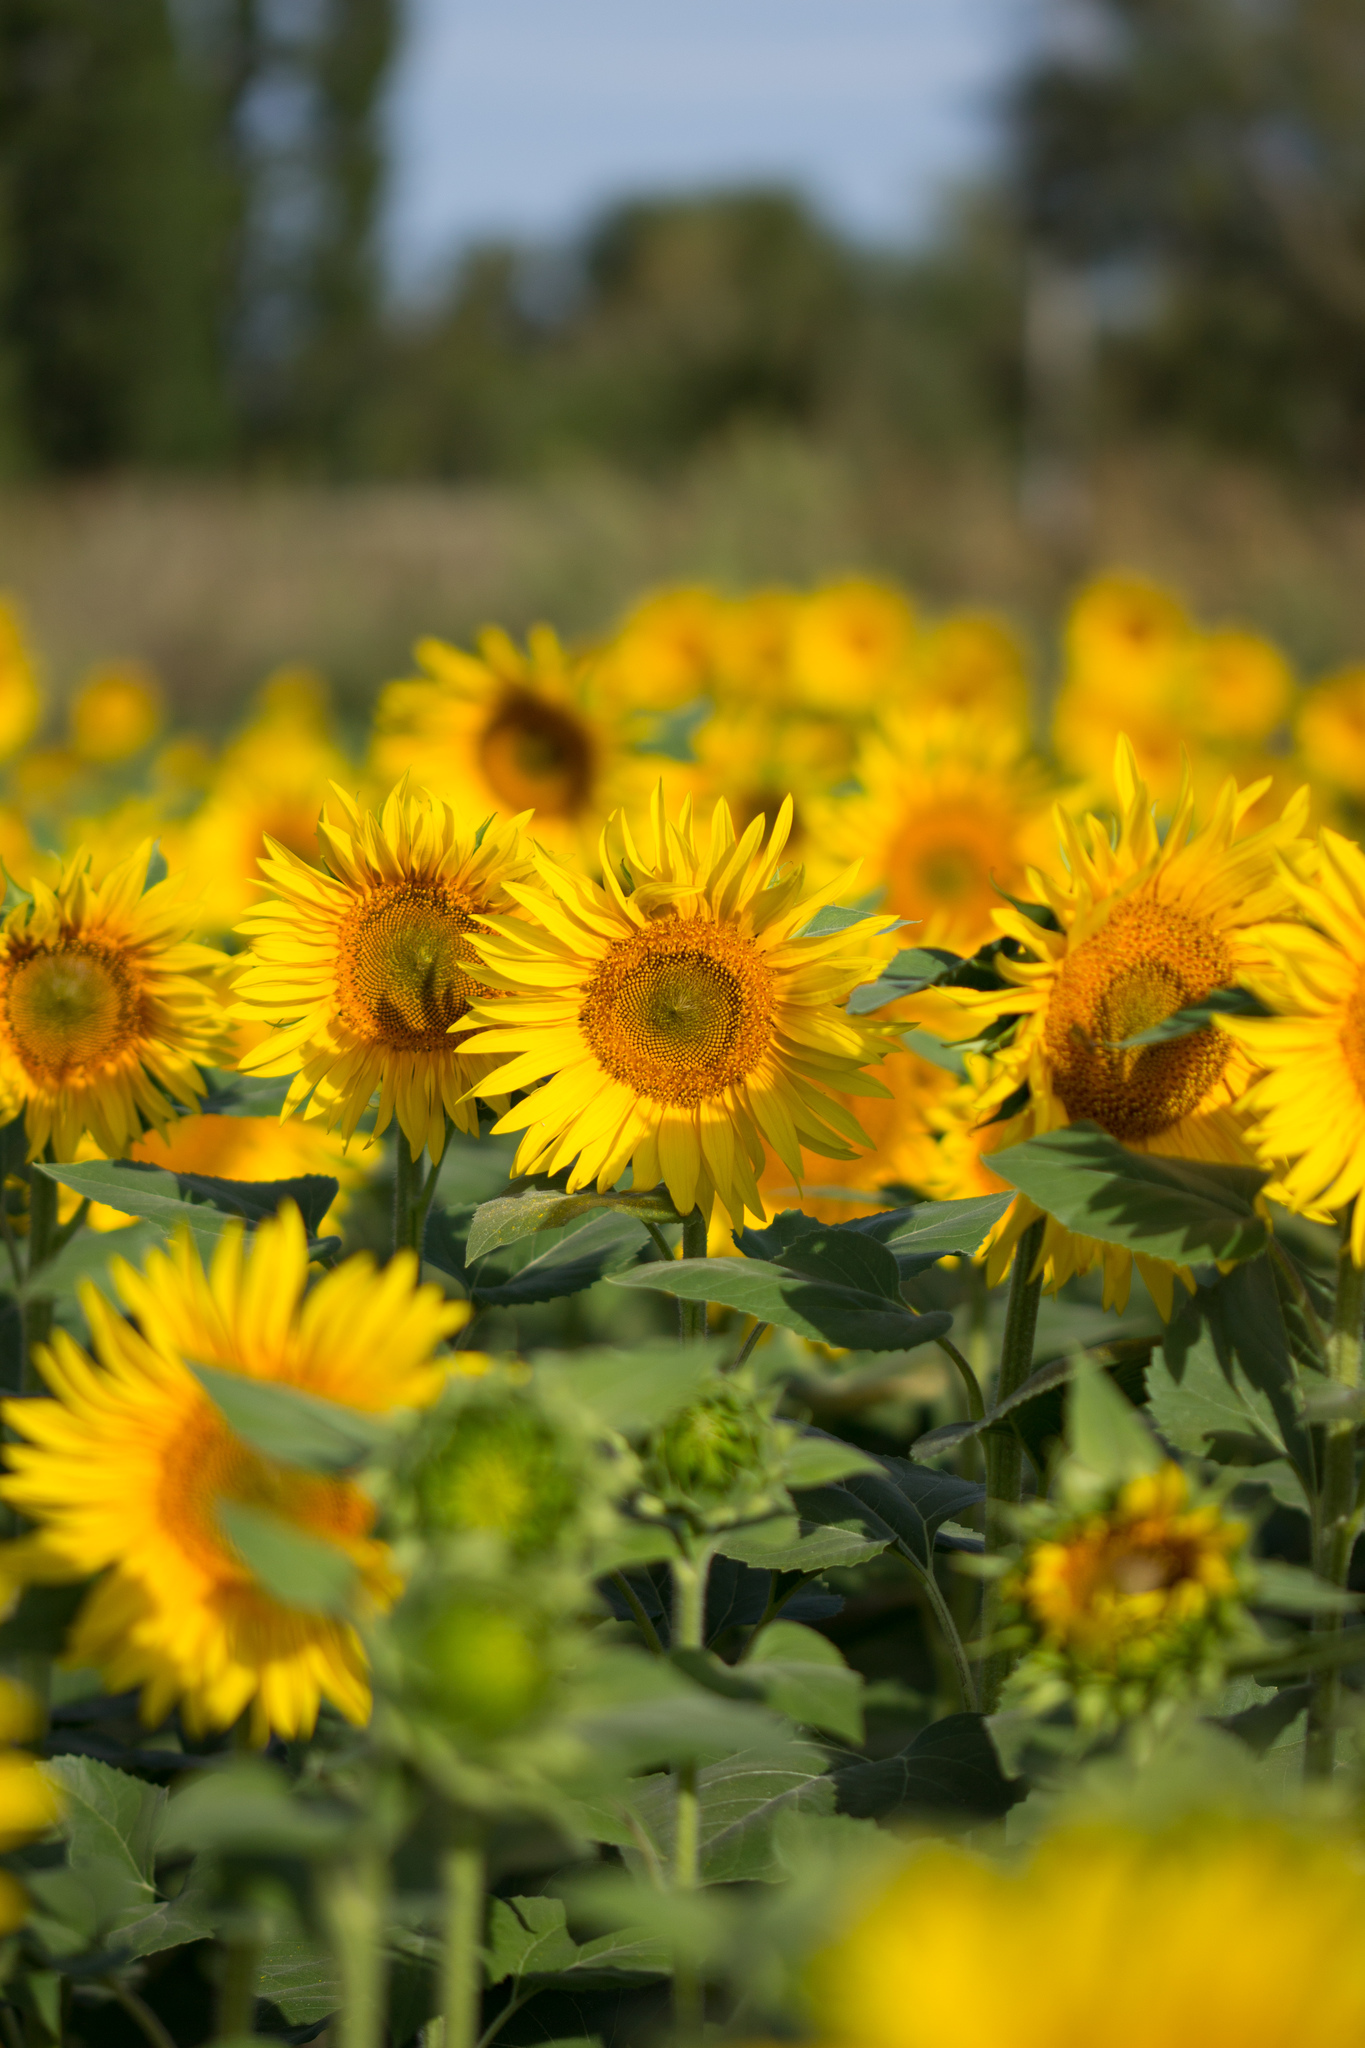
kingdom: Plantae
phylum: Tracheophyta
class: Magnoliopsida
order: Asterales
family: Asteraceae
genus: Helianthus
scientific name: Helianthus annuus
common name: Sunflower
